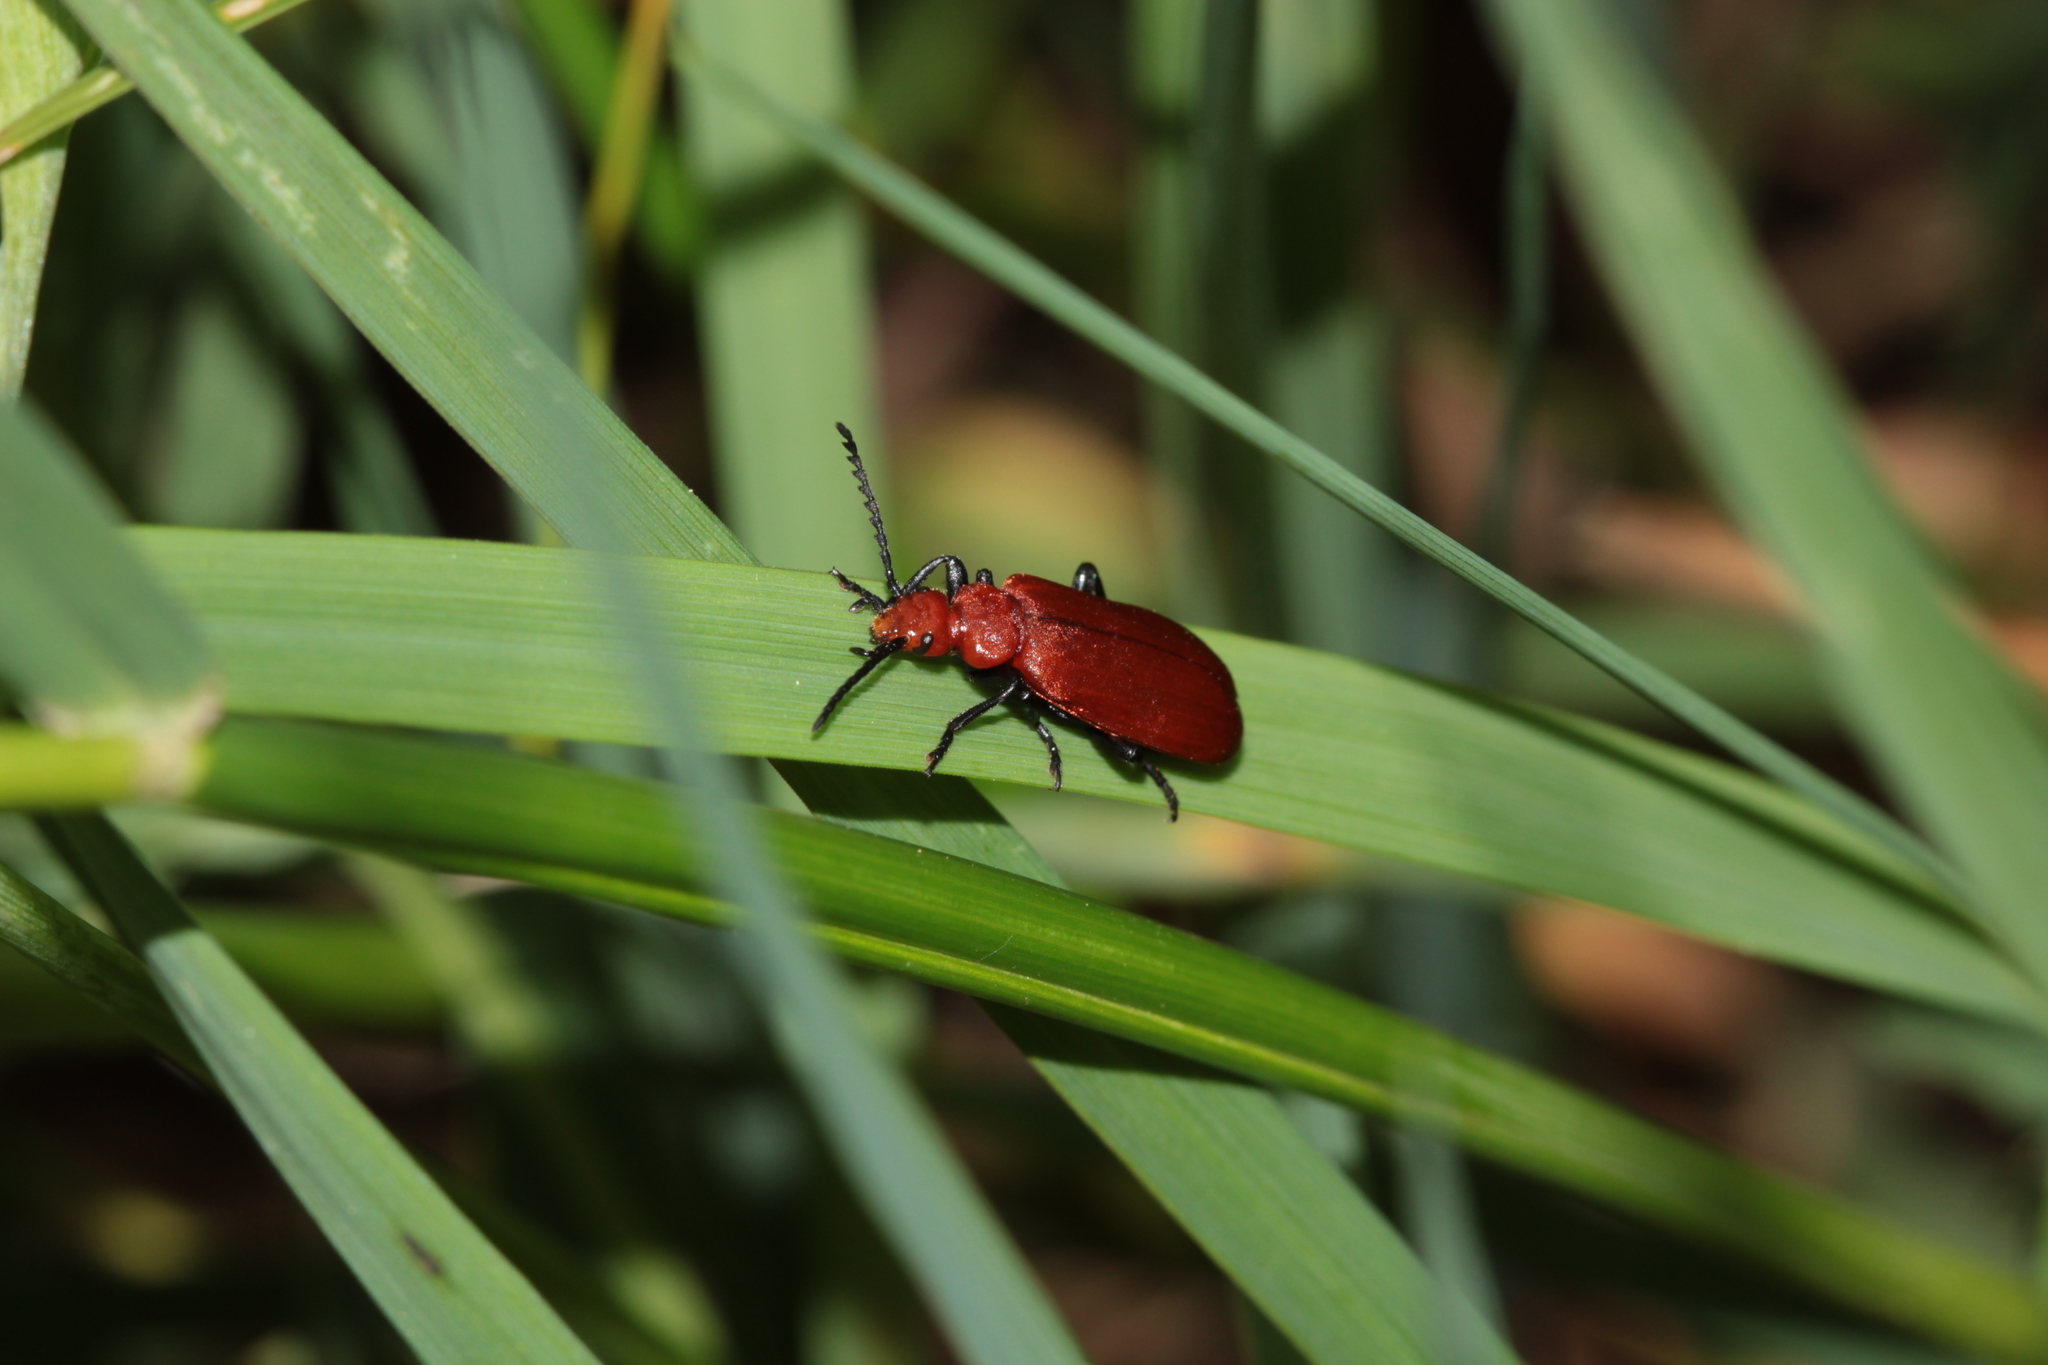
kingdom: Animalia
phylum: Arthropoda
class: Insecta
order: Coleoptera
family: Pyrochroidae
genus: Pyrochroa
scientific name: Pyrochroa serraticornis
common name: Red-headed cardinal beetle
